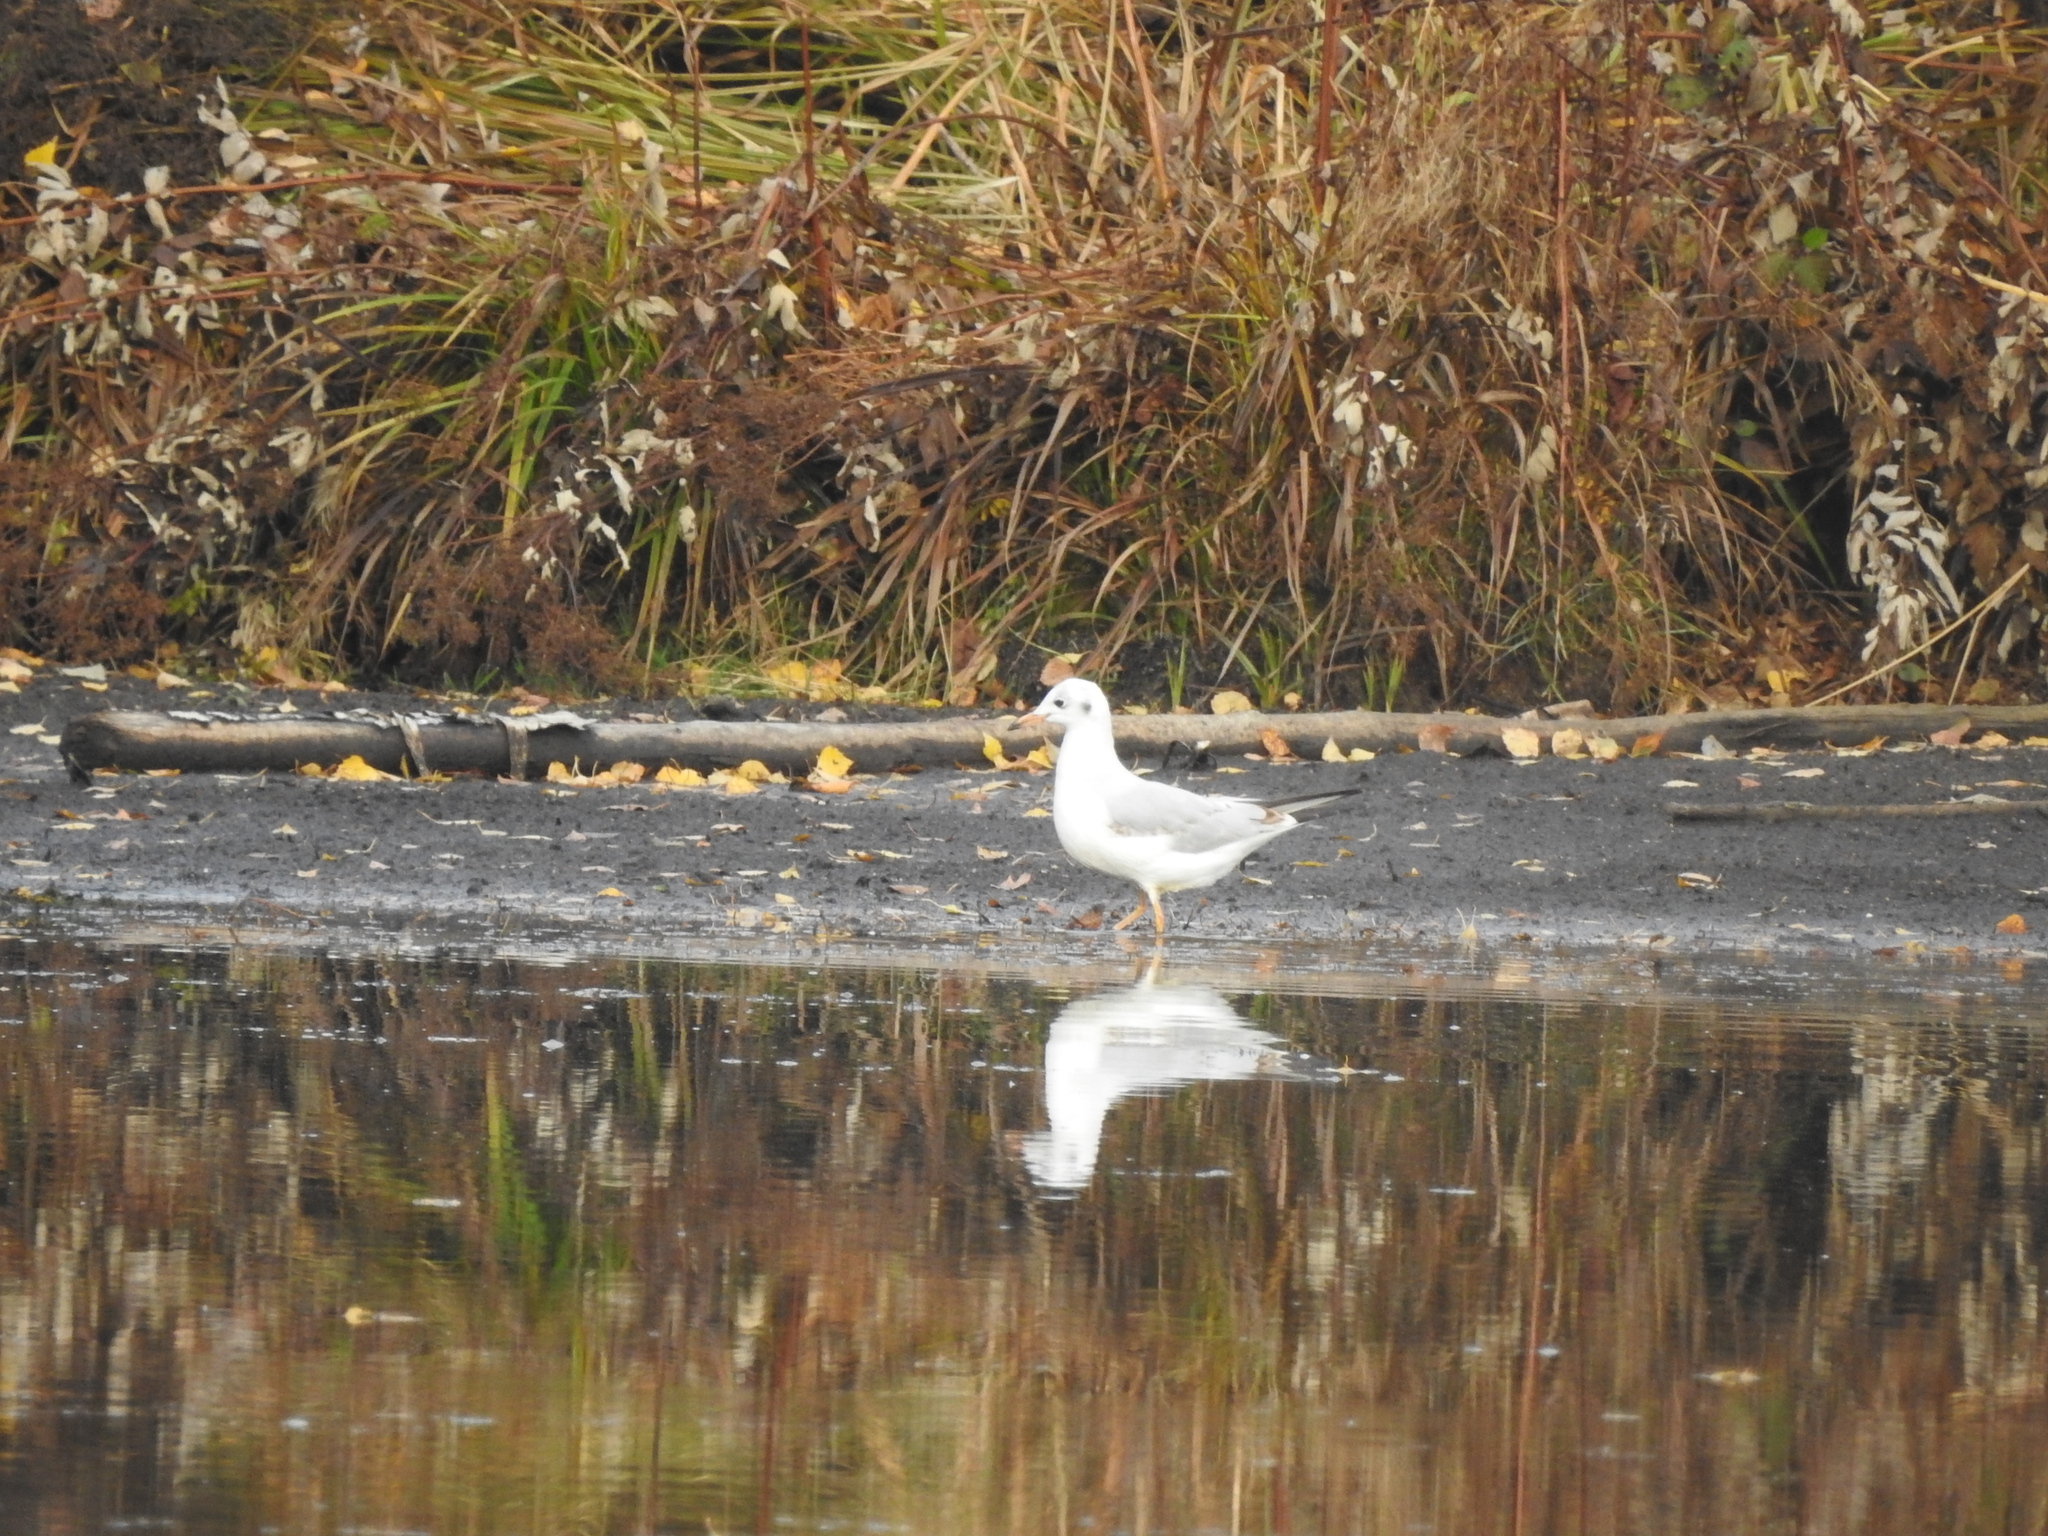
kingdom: Animalia
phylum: Chordata
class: Aves
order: Charadriiformes
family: Laridae
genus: Chroicocephalus
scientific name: Chroicocephalus ridibundus
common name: Black-headed gull
